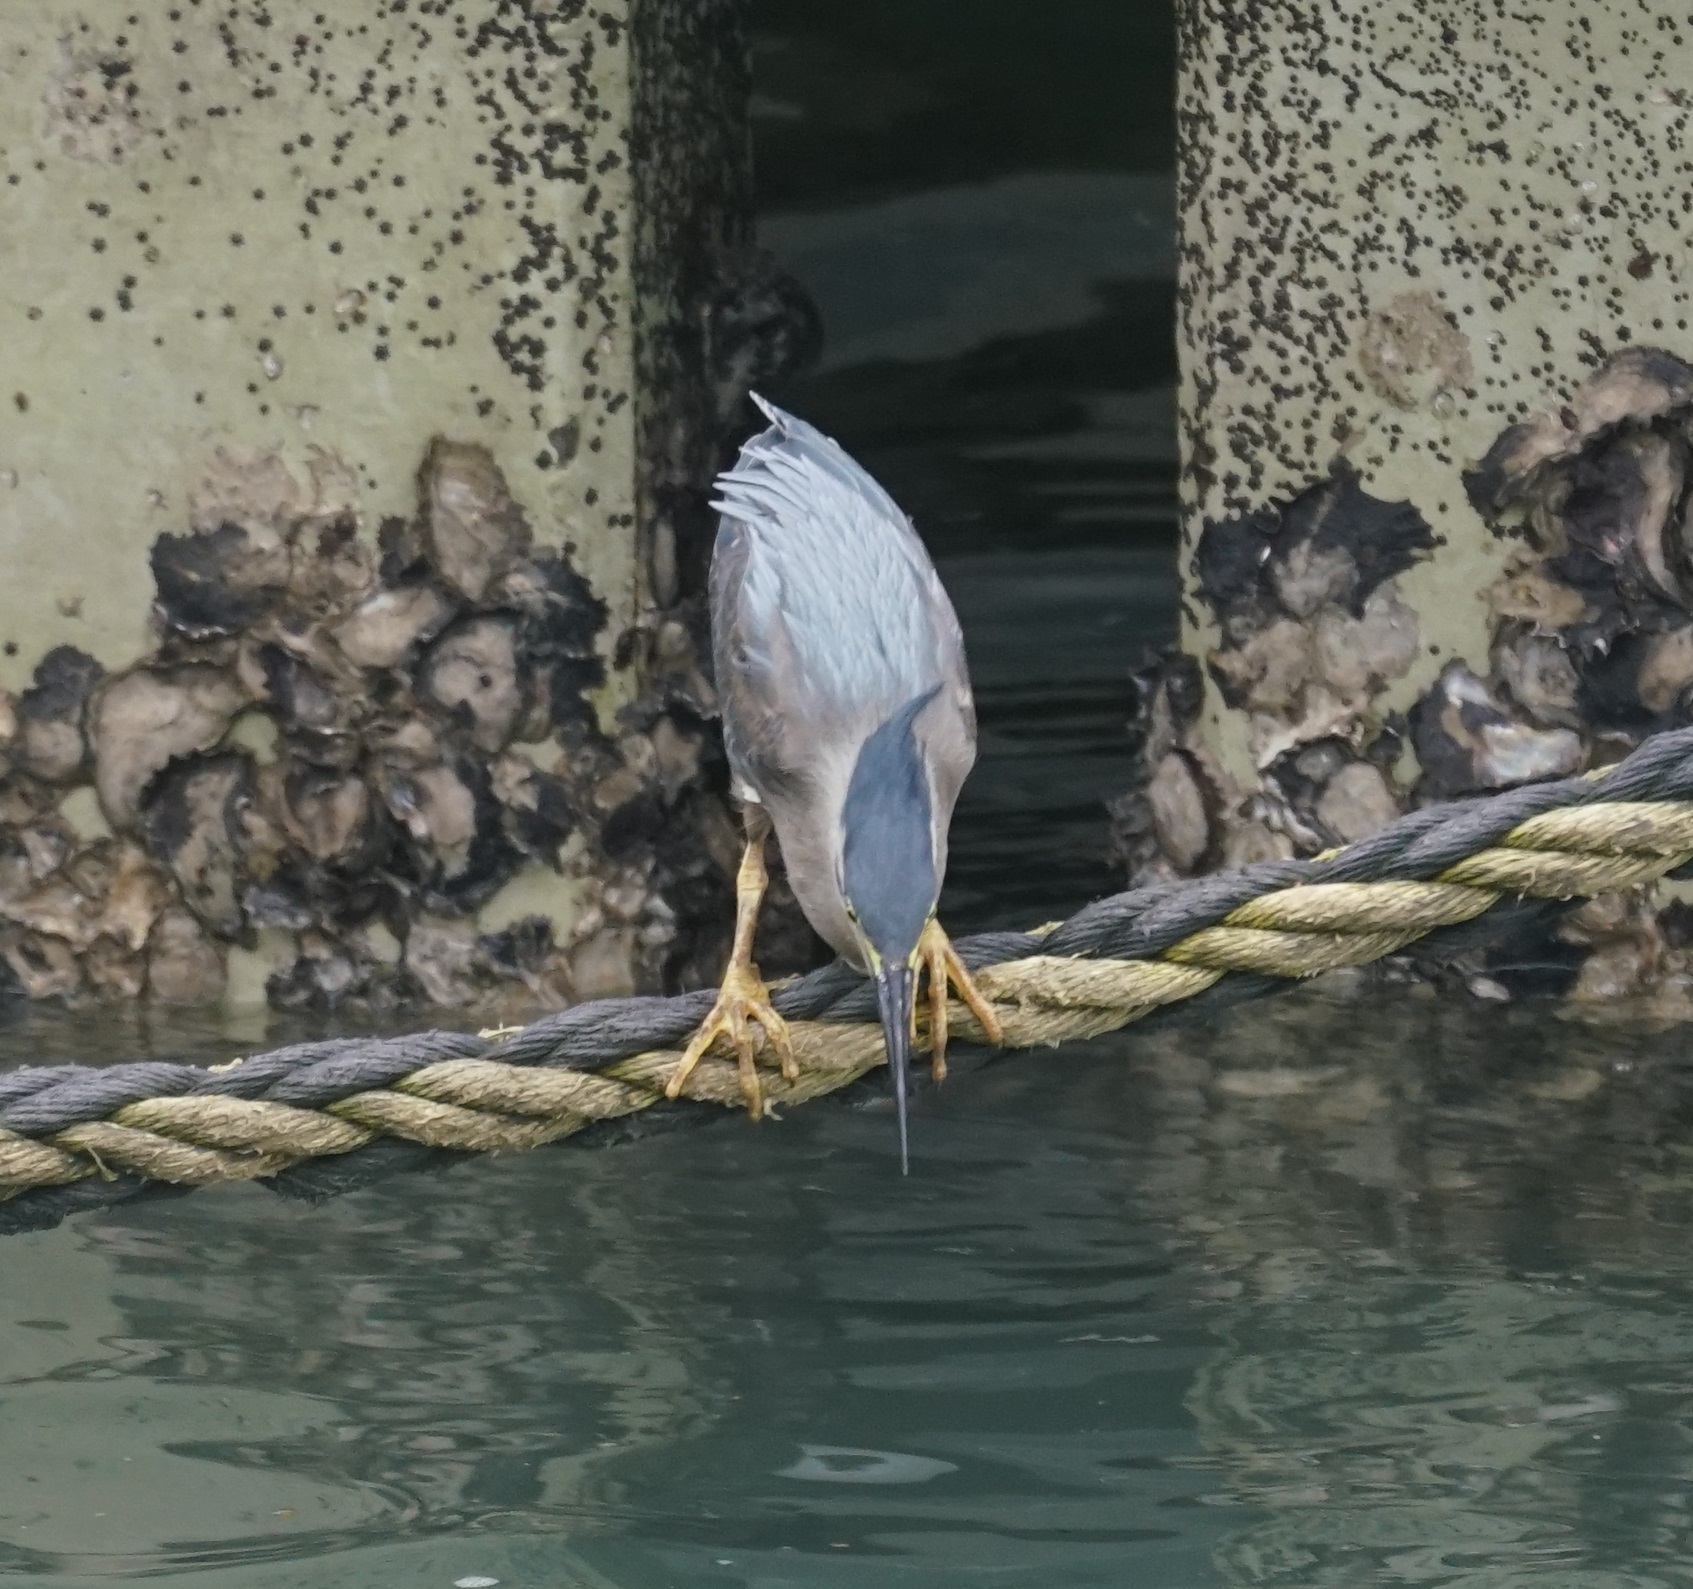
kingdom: Animalia
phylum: Chordata
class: Aves
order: Pelecaniformes
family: Ardeidae
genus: Butorides
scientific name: Butorides striata
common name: Striated heron
